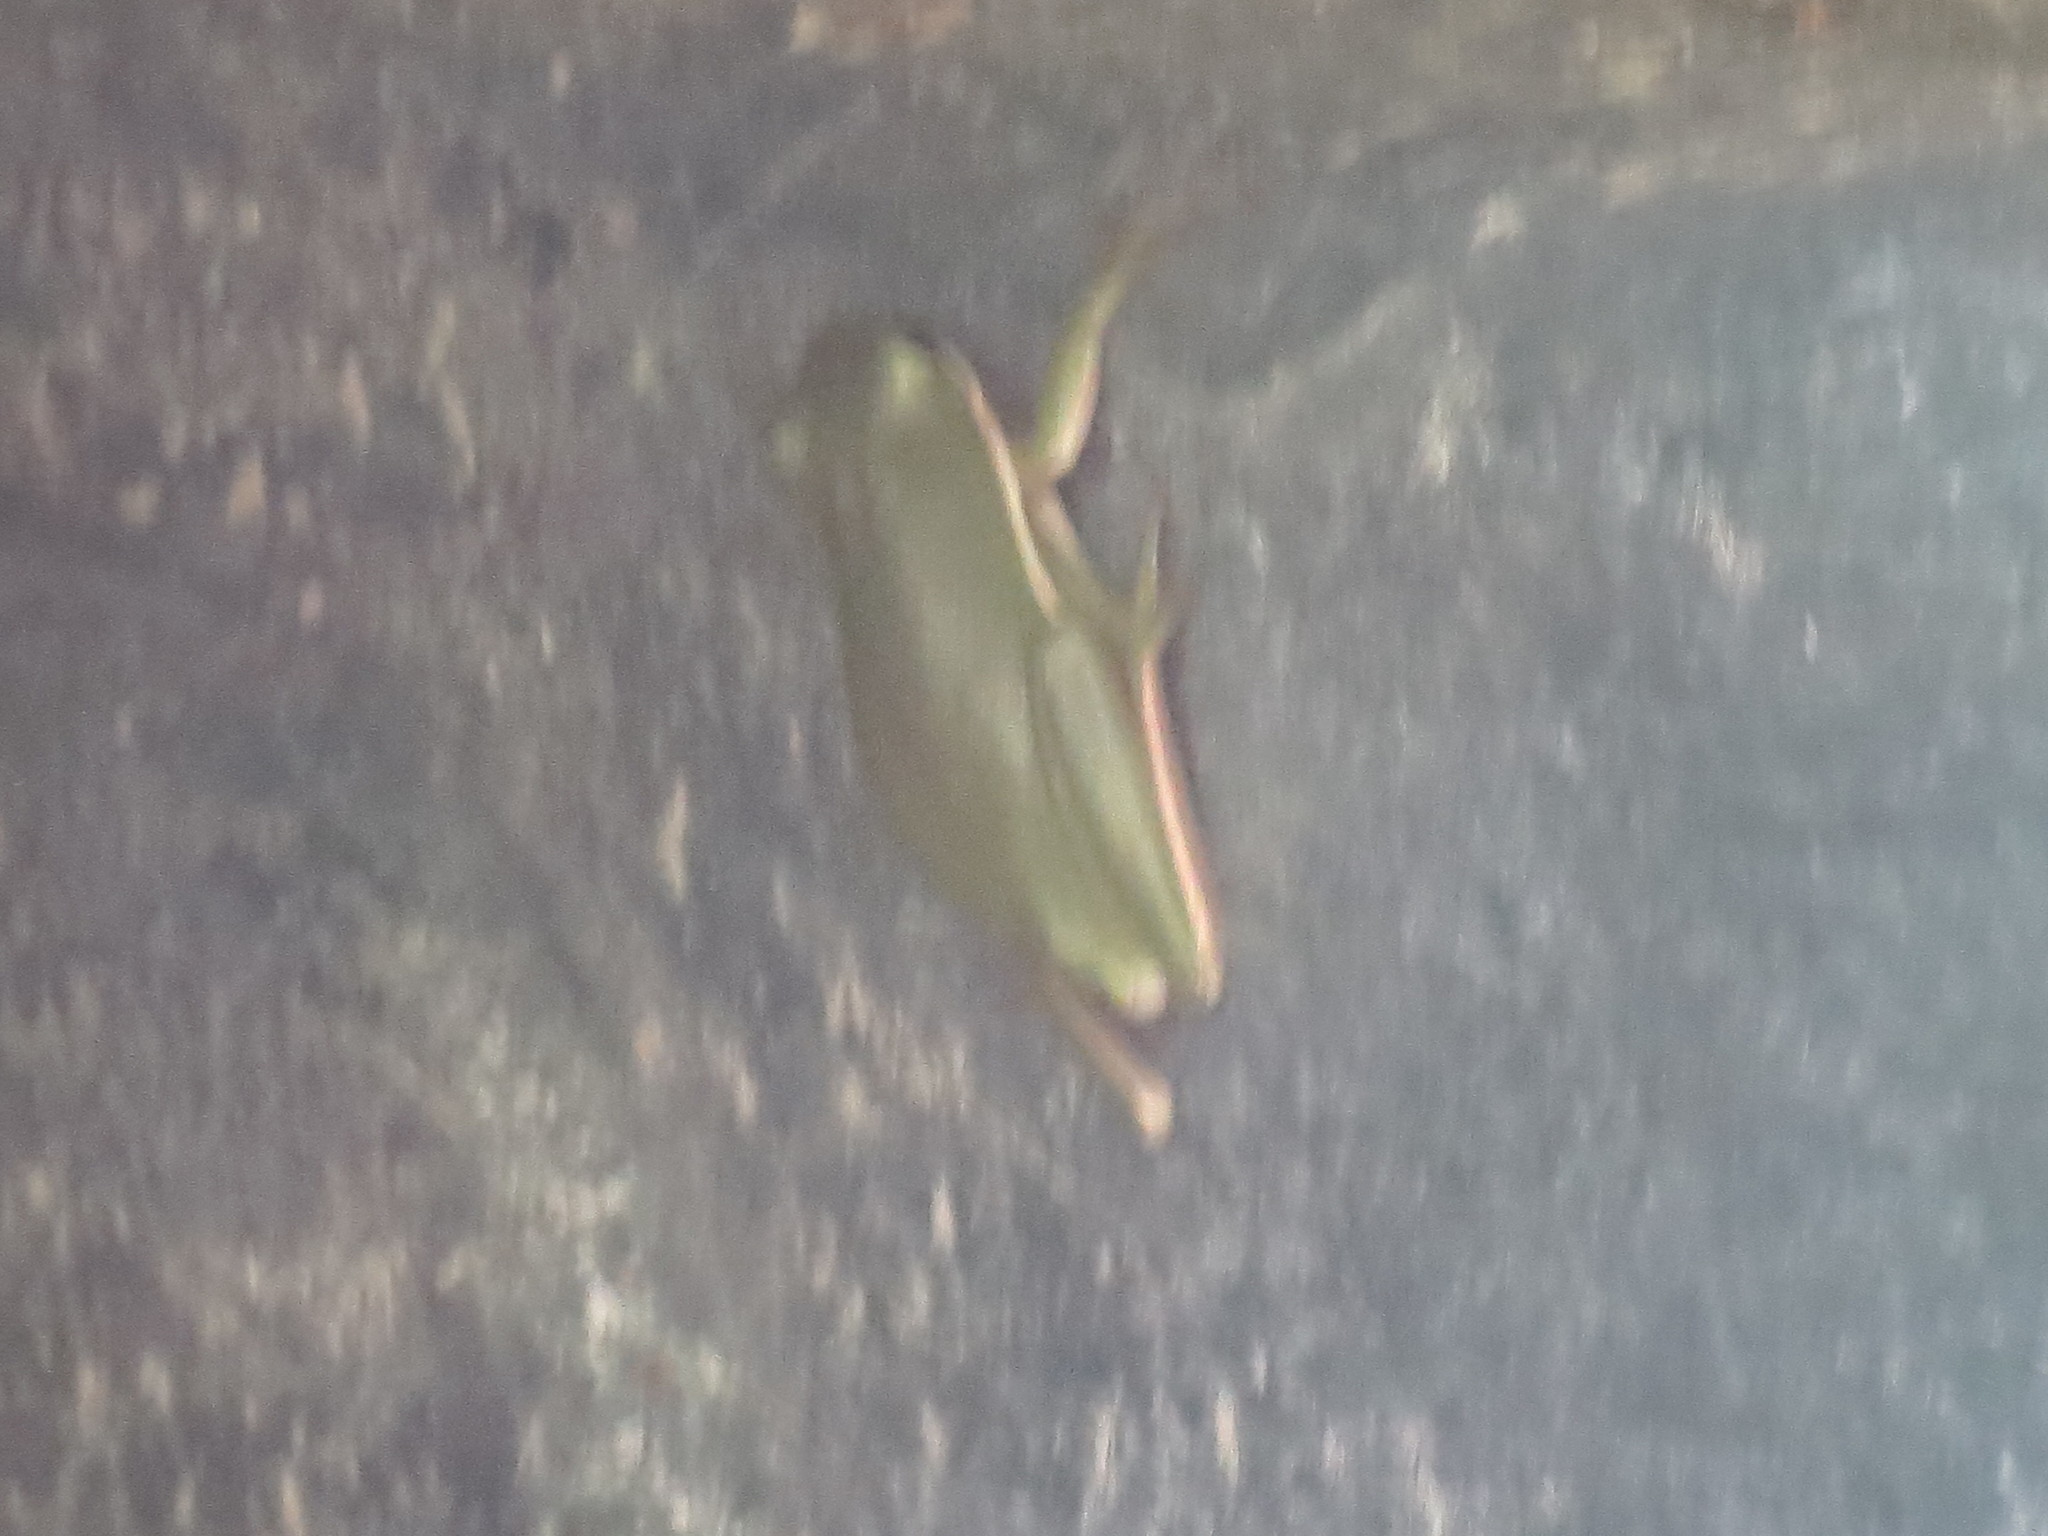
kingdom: Animalia
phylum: Chordata
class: Amphibia
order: Anura
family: Hylidae
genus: Dryophytes
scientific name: Dryophytes cinereus
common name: Green treefrog
